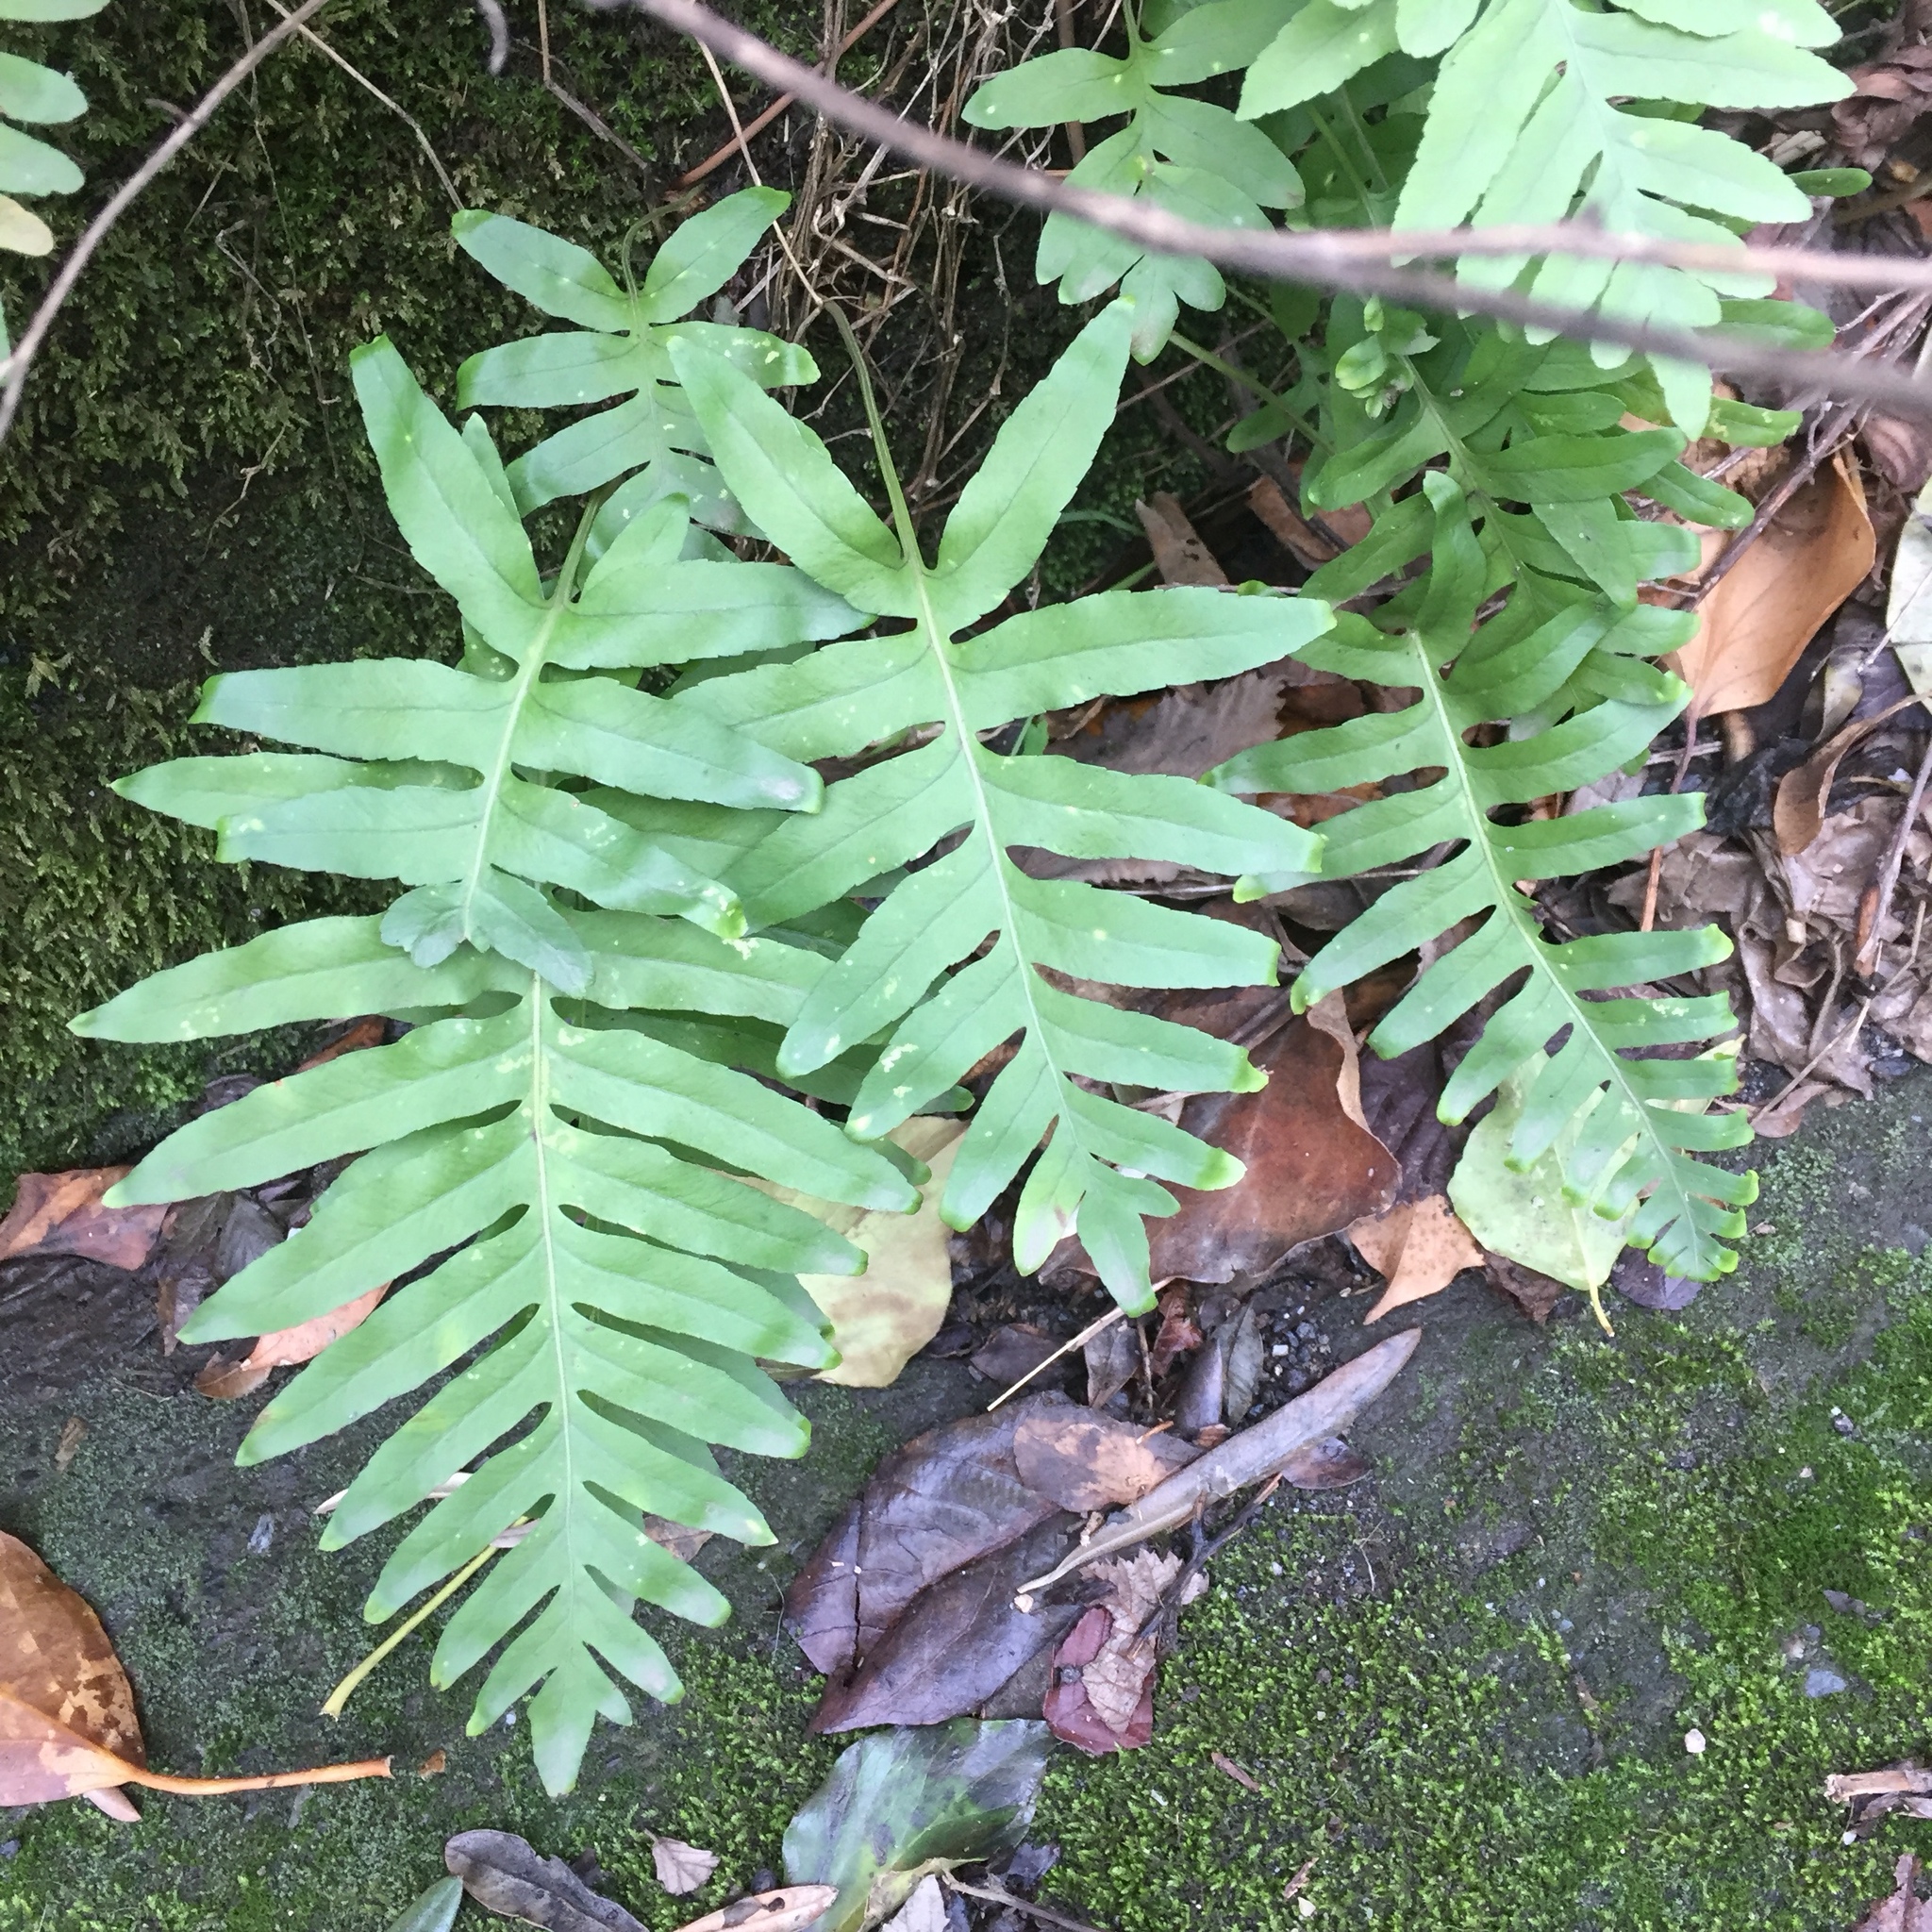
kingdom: Plantae
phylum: Tracheophyta
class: Polypodiopsida
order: Polypodiales
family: Polypodiaceae
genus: Polypodium
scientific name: Polypodium cambricum
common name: Southern polypody
